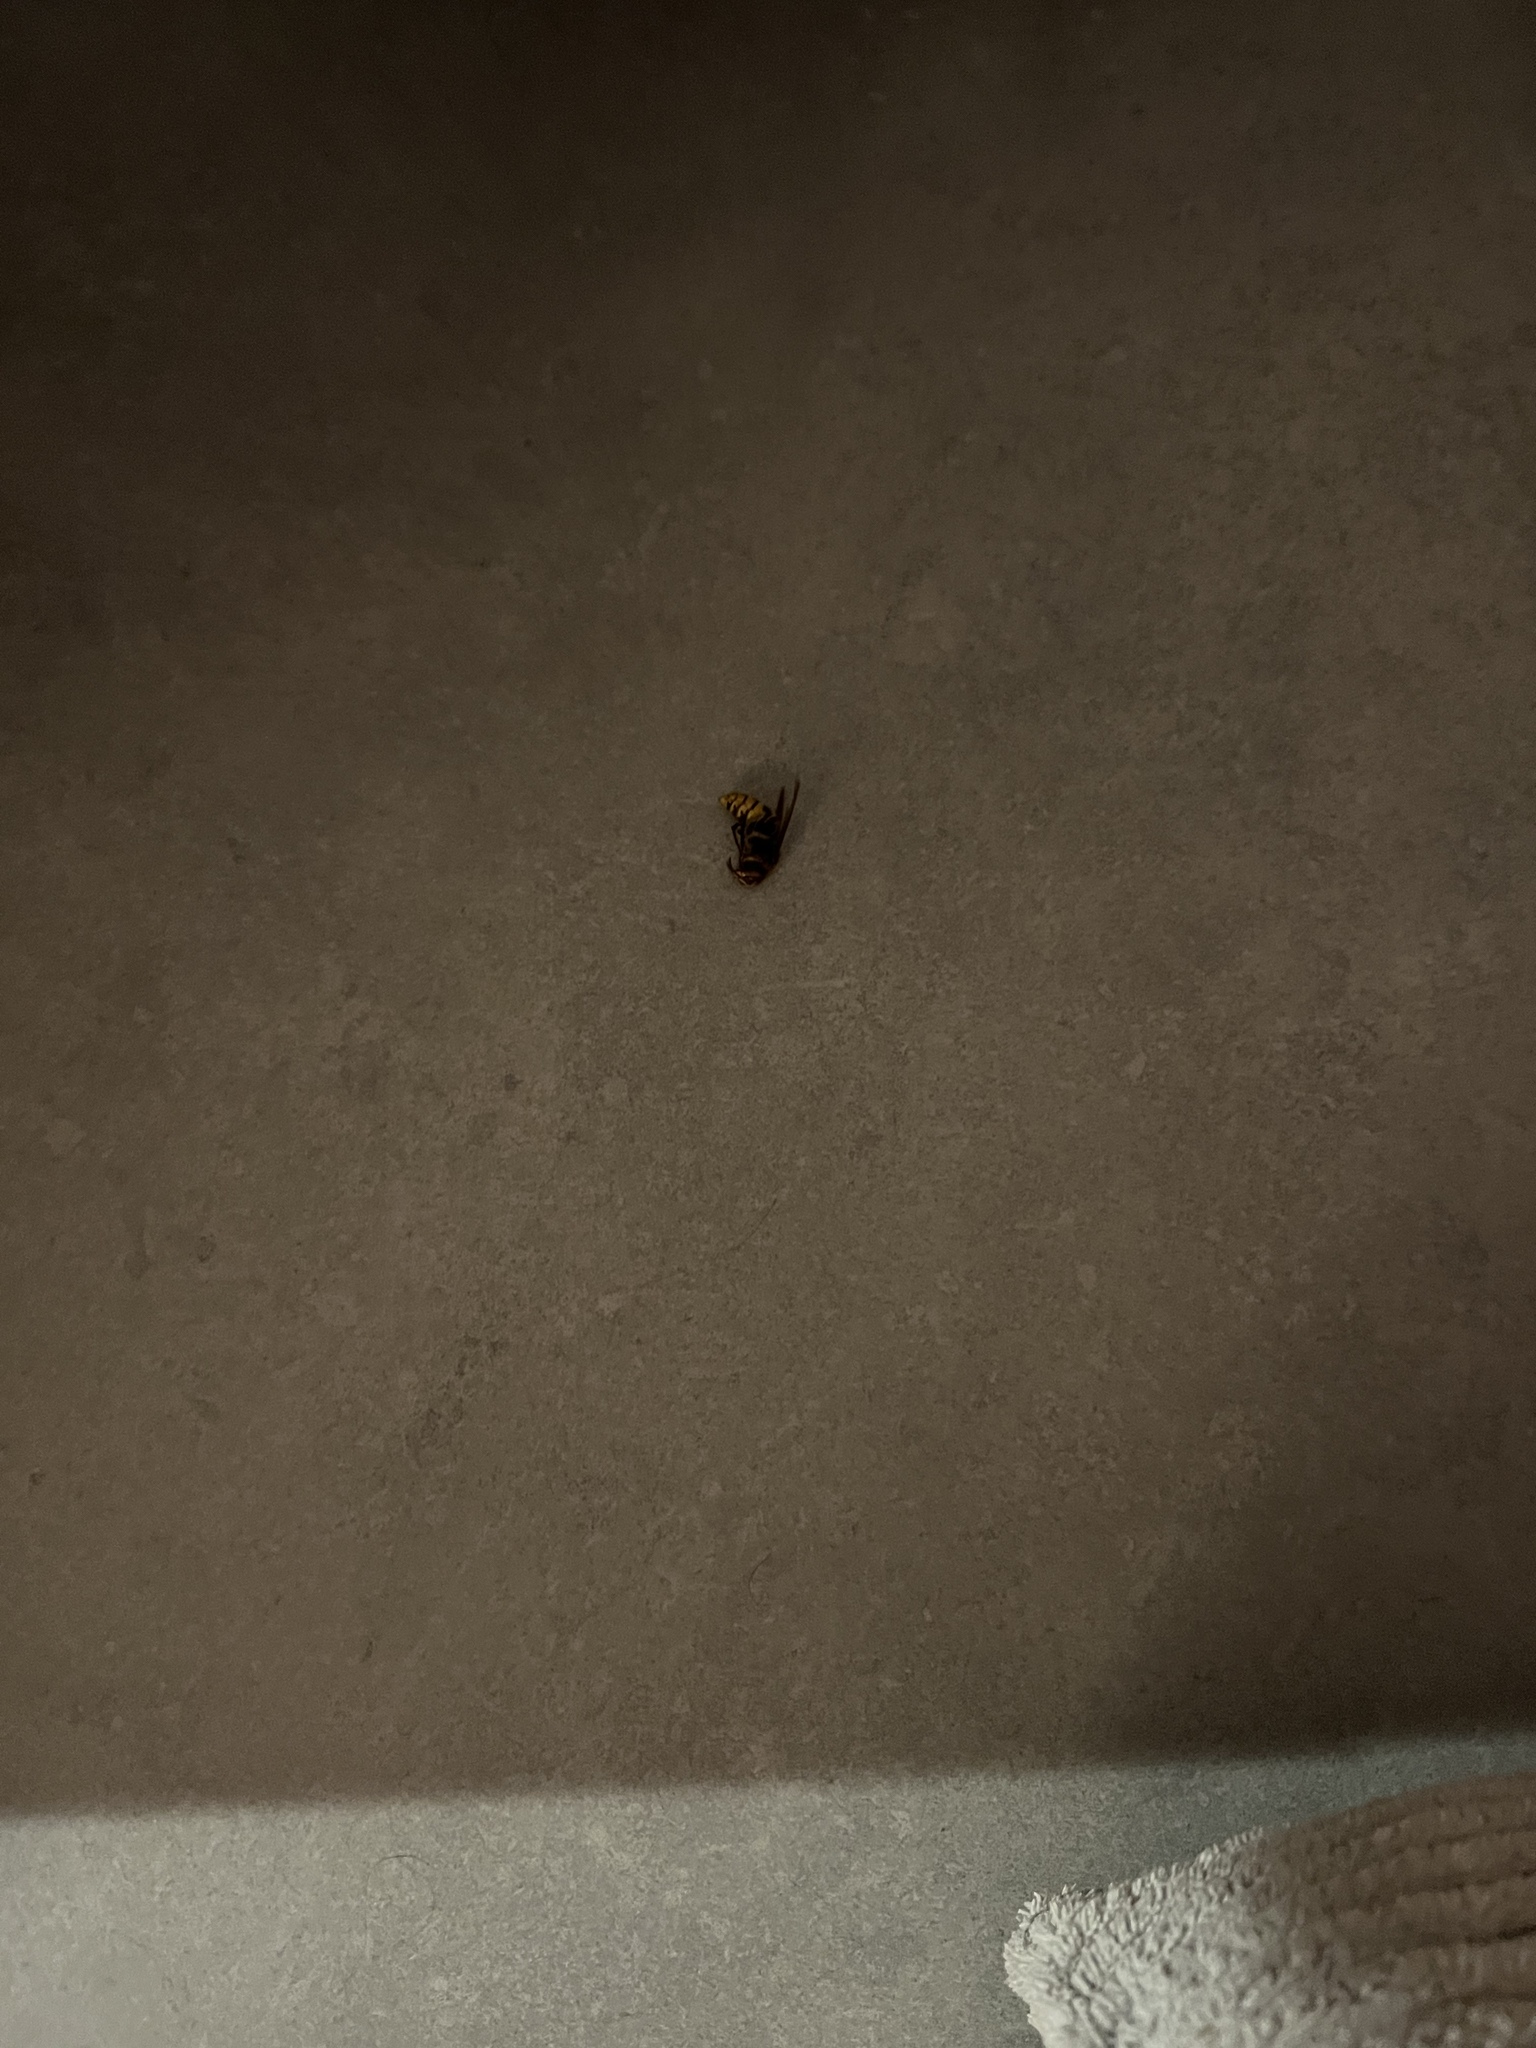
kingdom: Animalia
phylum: Arthropoda
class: Insecta
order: Hymenoptera
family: Vespidae
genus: Vespa
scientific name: Vespa crabro
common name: Hornet
